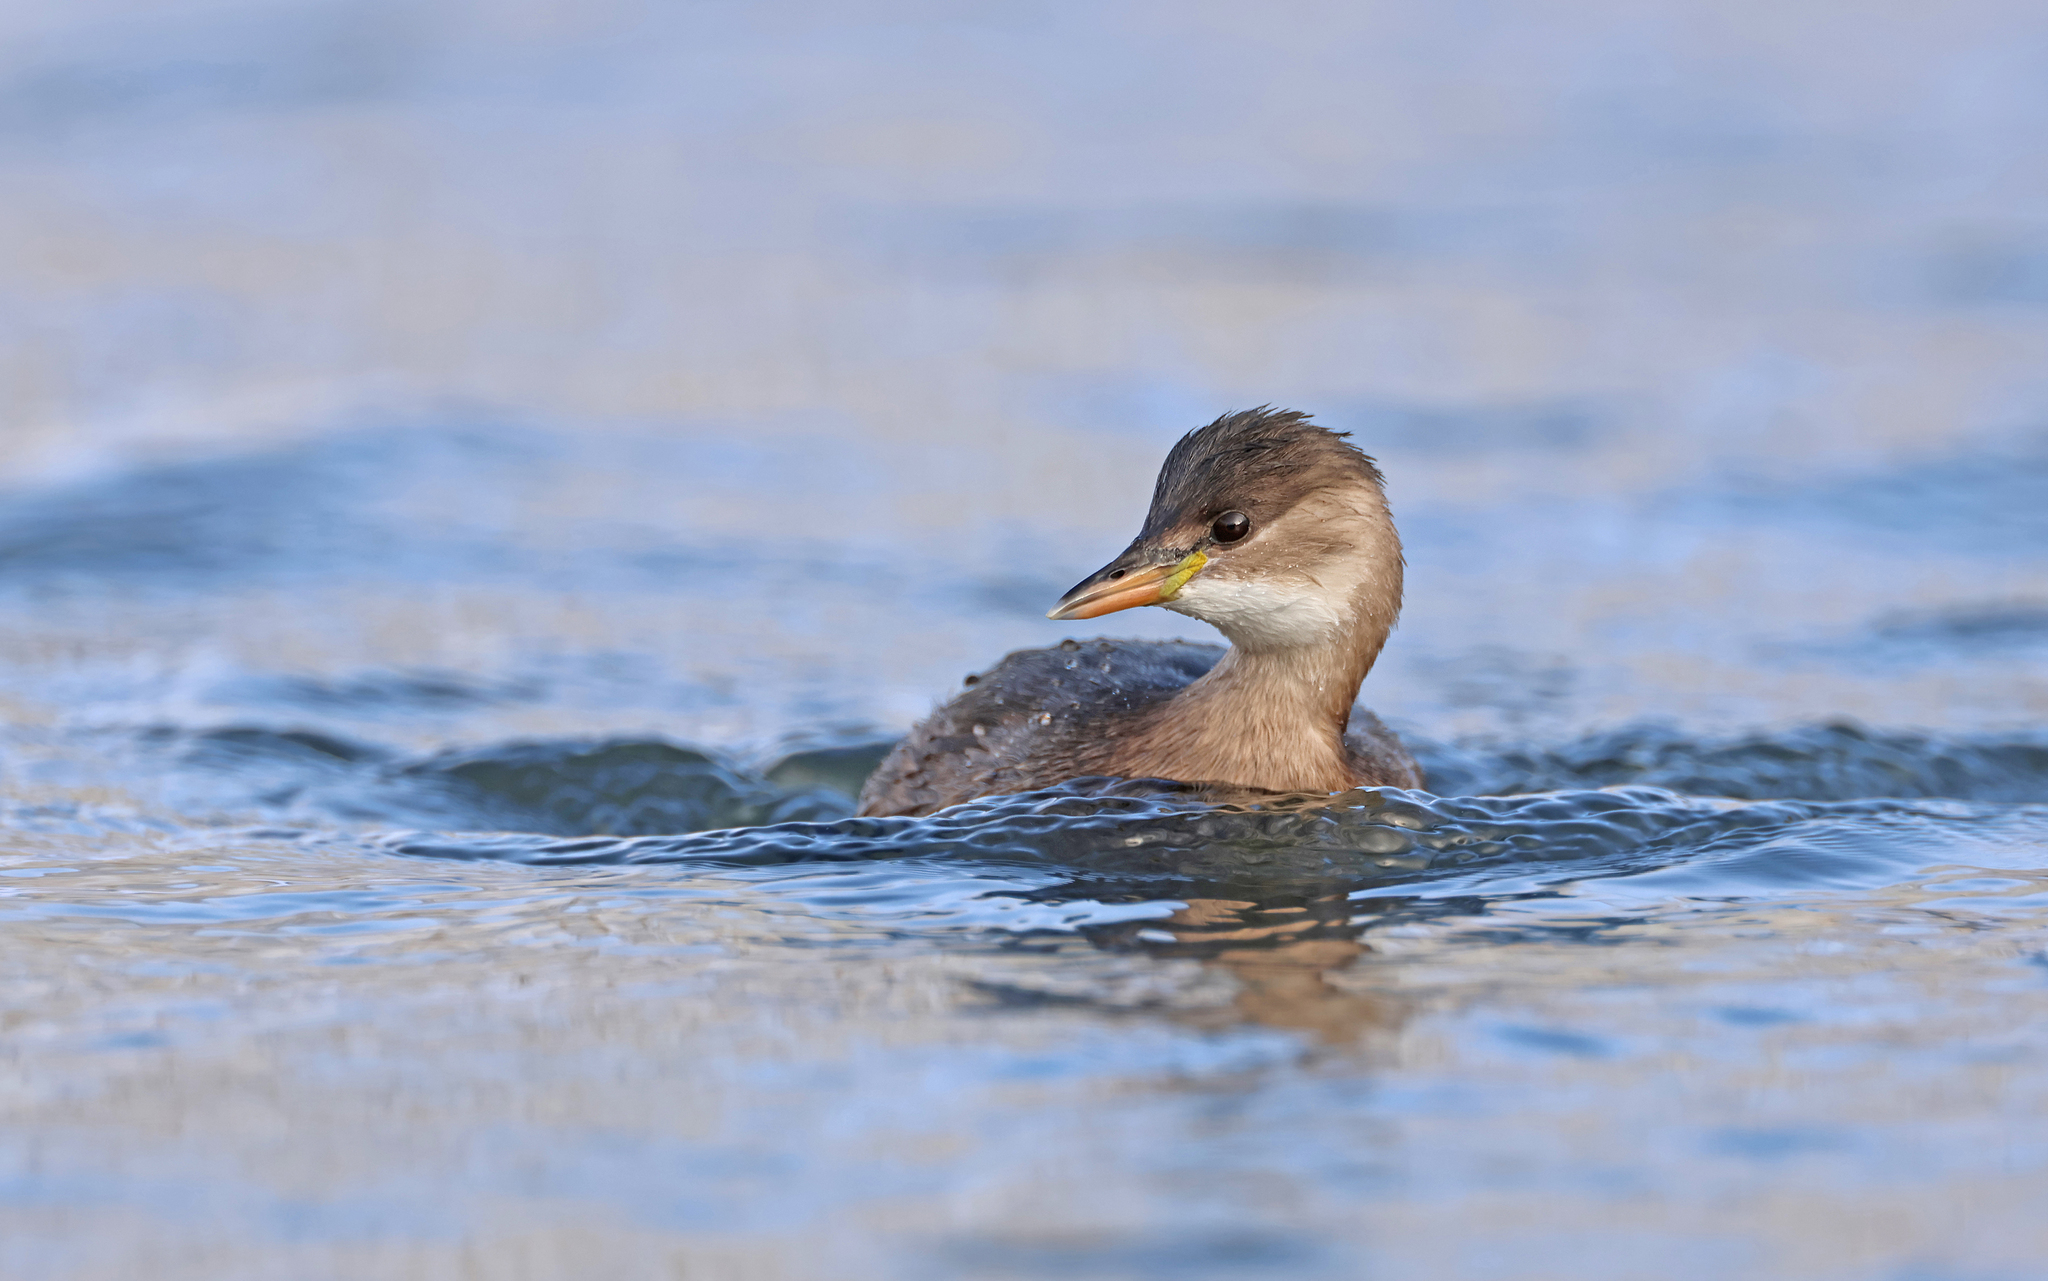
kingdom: Animalia
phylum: Chordata
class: Aves
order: Podicipediformes
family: Podicipedidae
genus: Tachybaptus
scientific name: Tachybaptus ruficollis
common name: Little grebe
